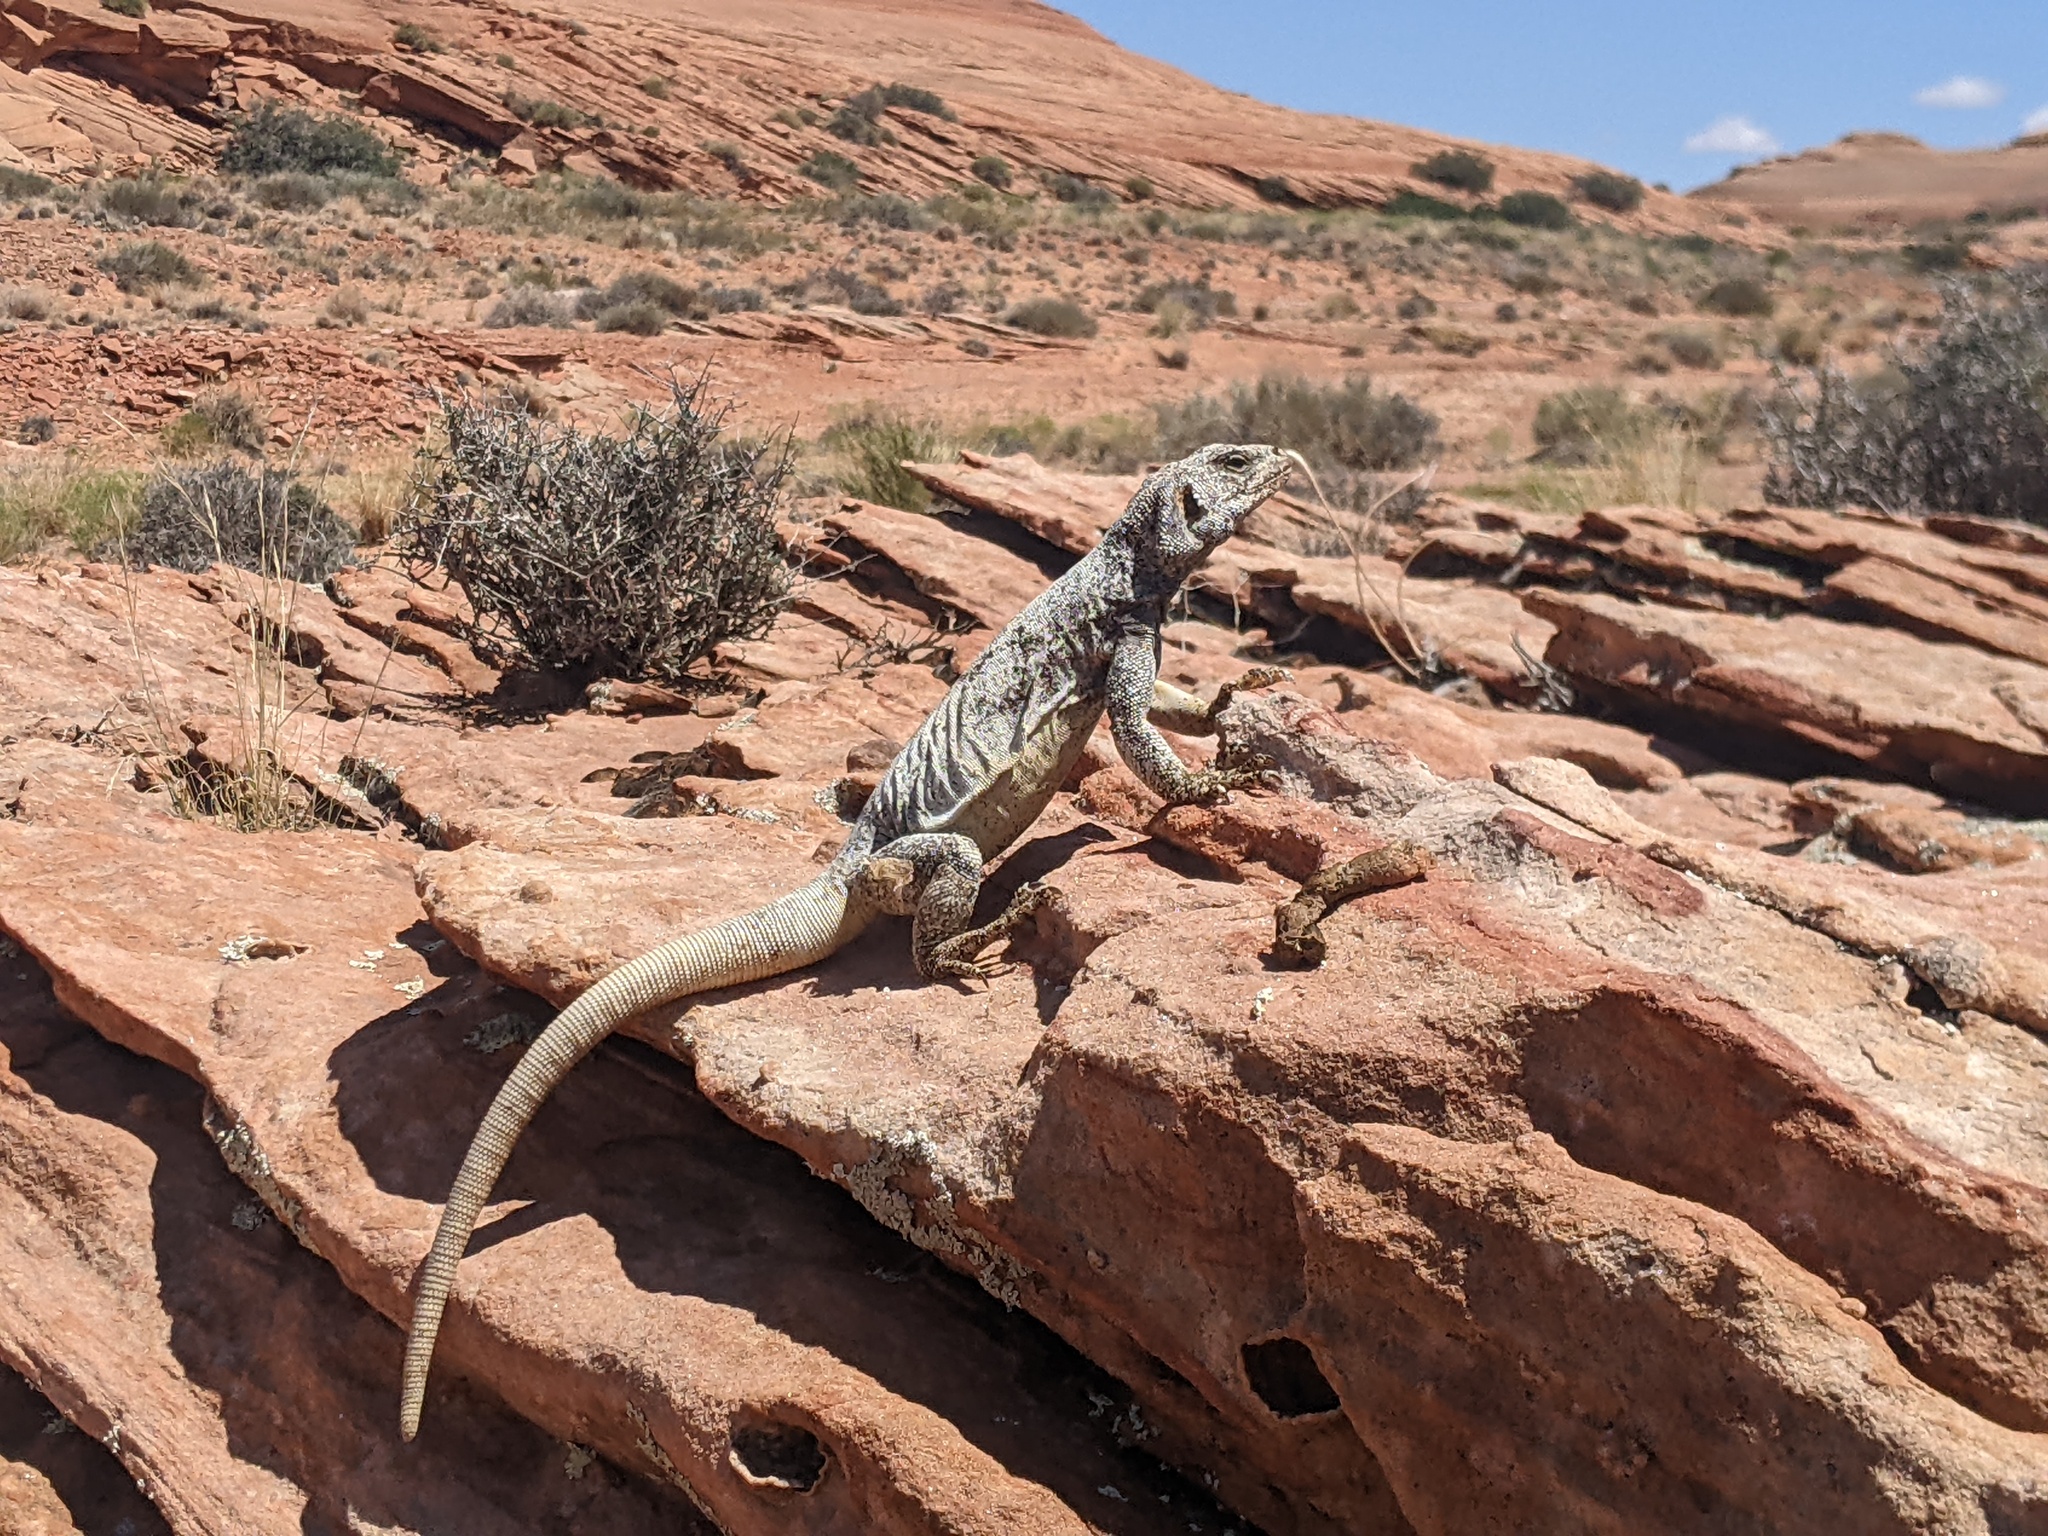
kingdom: Animalia
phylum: Chordata
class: Squamata
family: Iguanidae
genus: Sauromalus
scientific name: Sauromalus ater
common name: Northern chuckwalla
